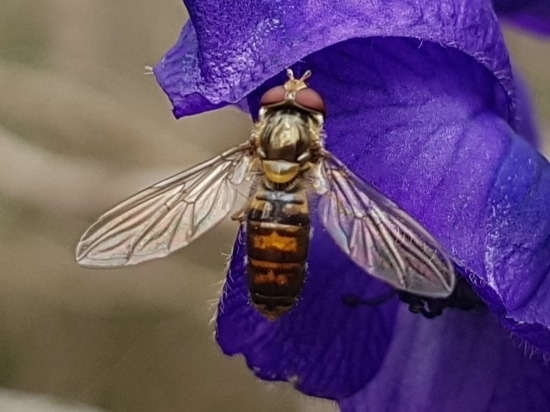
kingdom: Animalia
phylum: Arthropoda
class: Insecta
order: Diptera
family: Syrphidae
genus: Episyrphus
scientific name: Episyrphus balteatus
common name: Marmalade hoverfly
